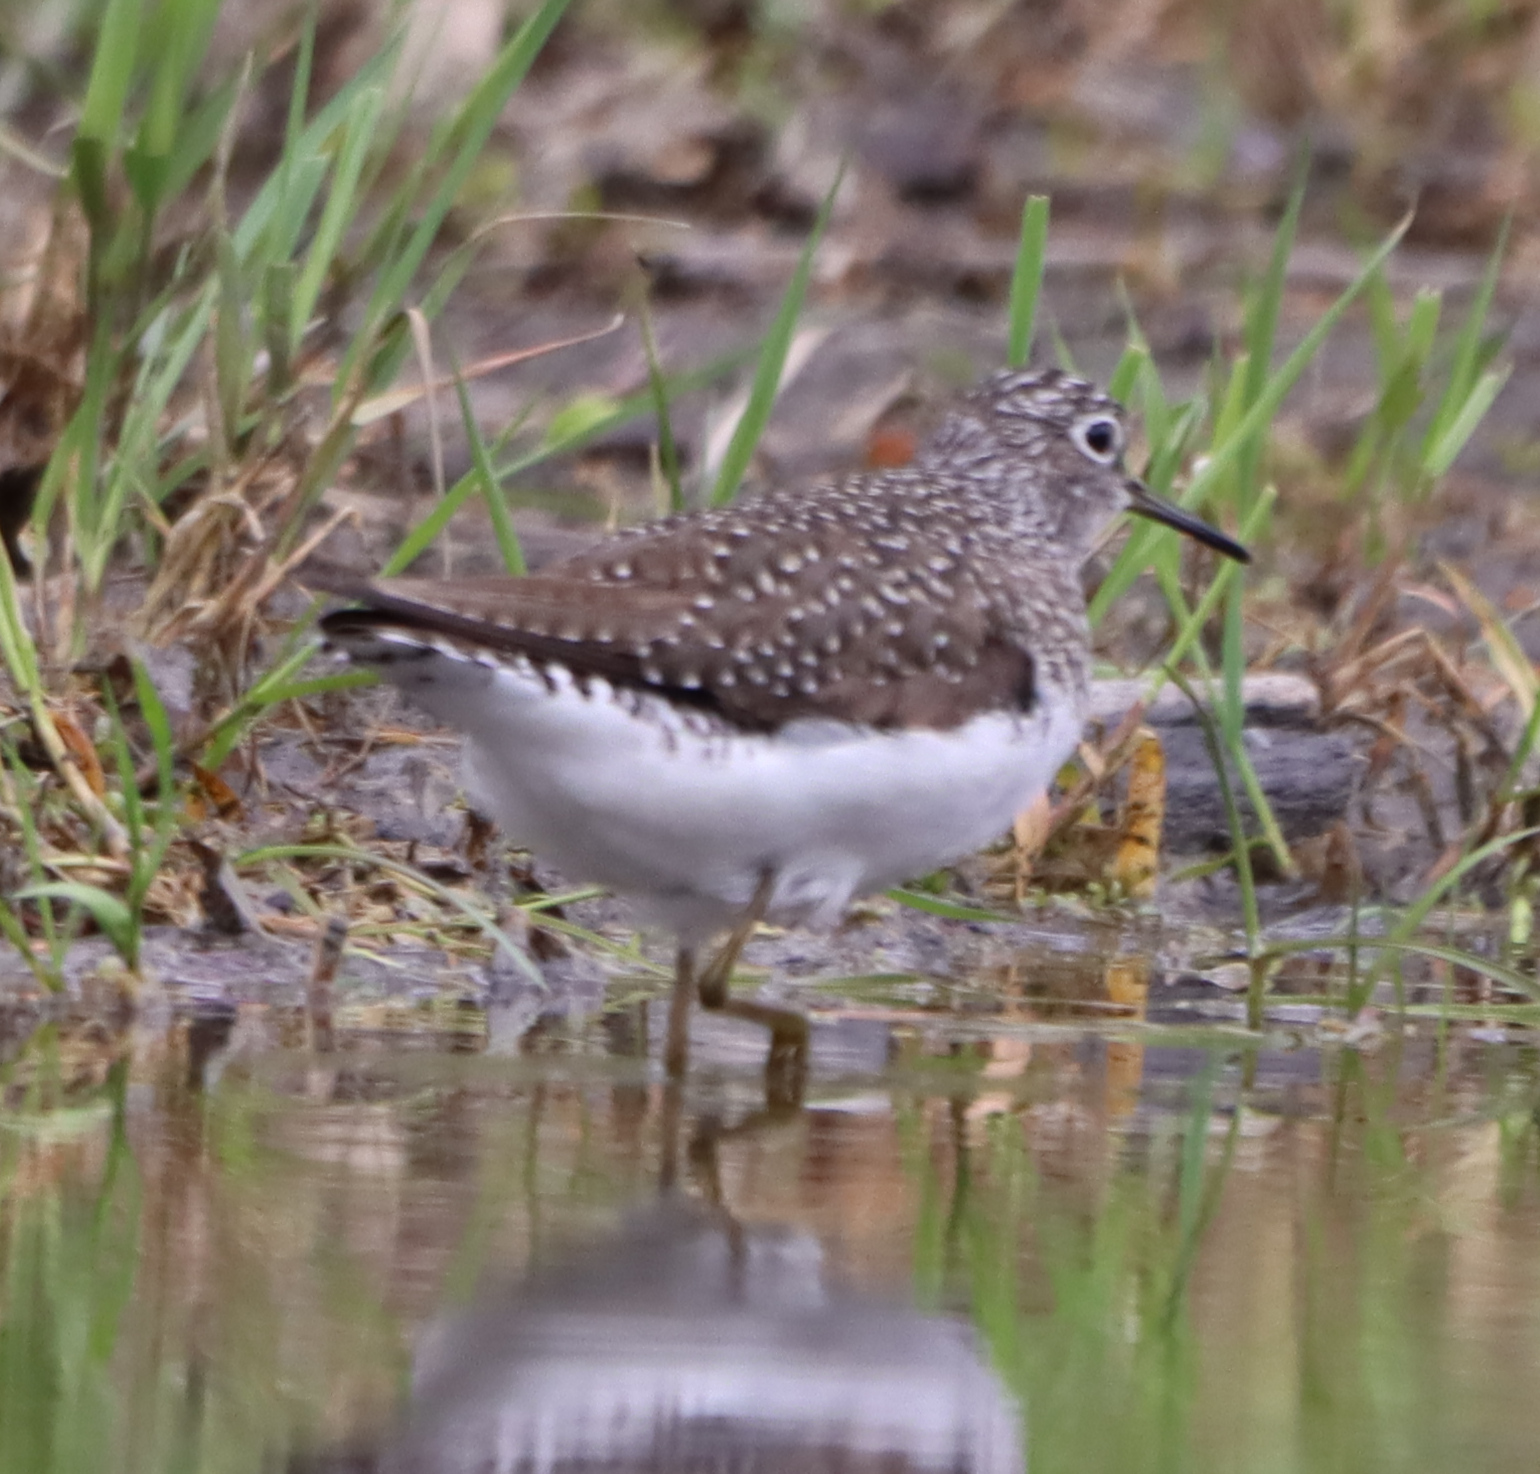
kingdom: Animalia
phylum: Chordata
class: Aves
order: Charadriiformes
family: Scolopacidae
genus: Tringa
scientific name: Tringa solitaria
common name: Solitary sandpiper
